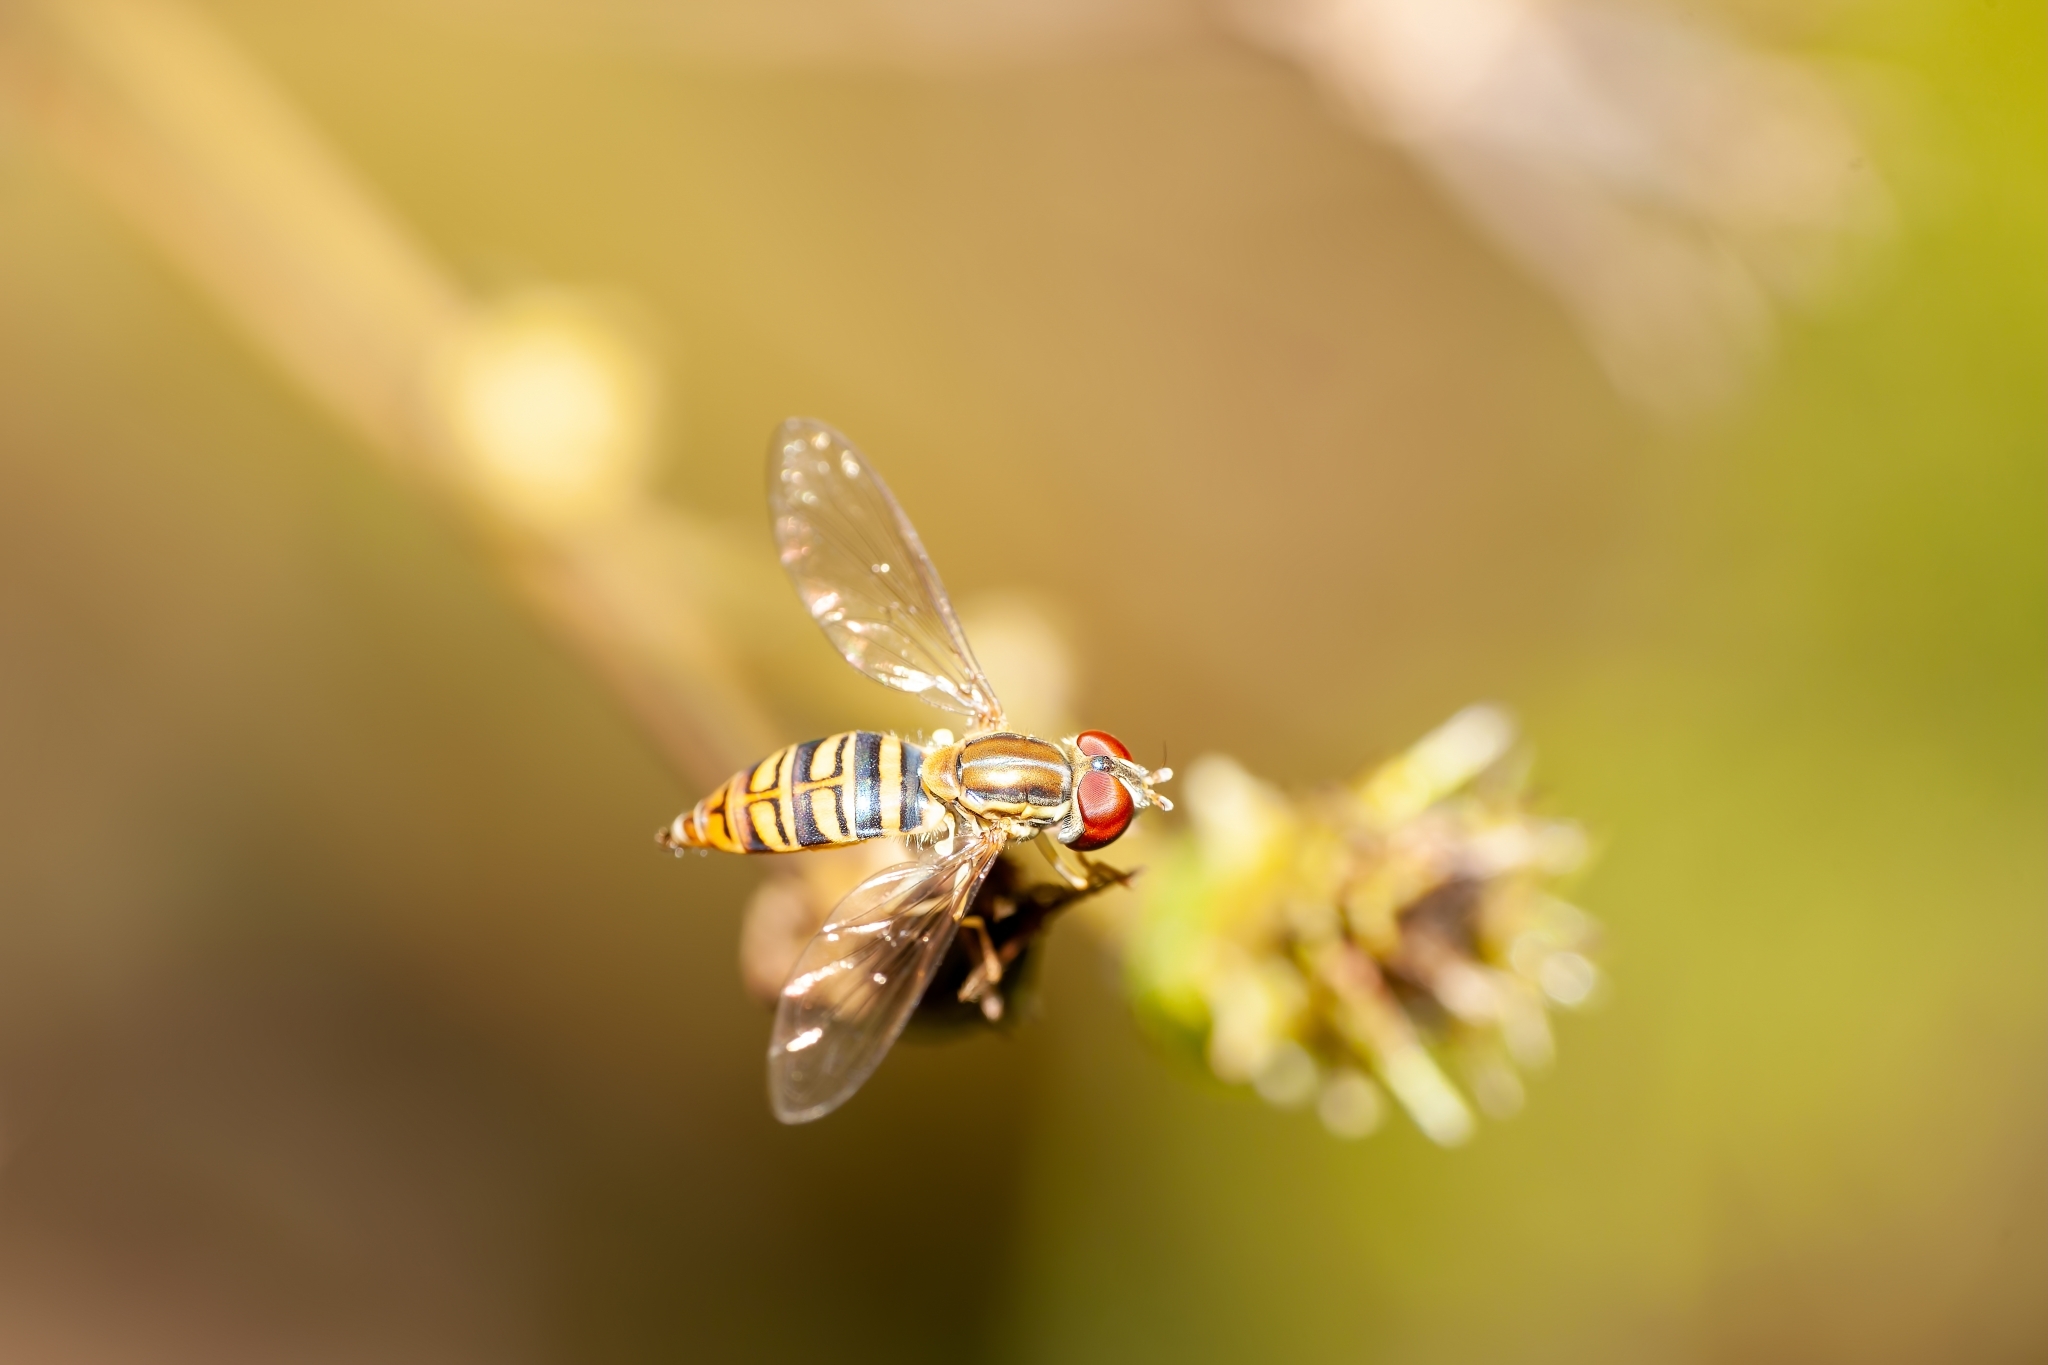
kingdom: Animalia
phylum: Arthropoda
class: Insecta
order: Diptera
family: Syrphidae
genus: Toxomerus
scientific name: Toxomerus politus
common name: Maize calligrapher
